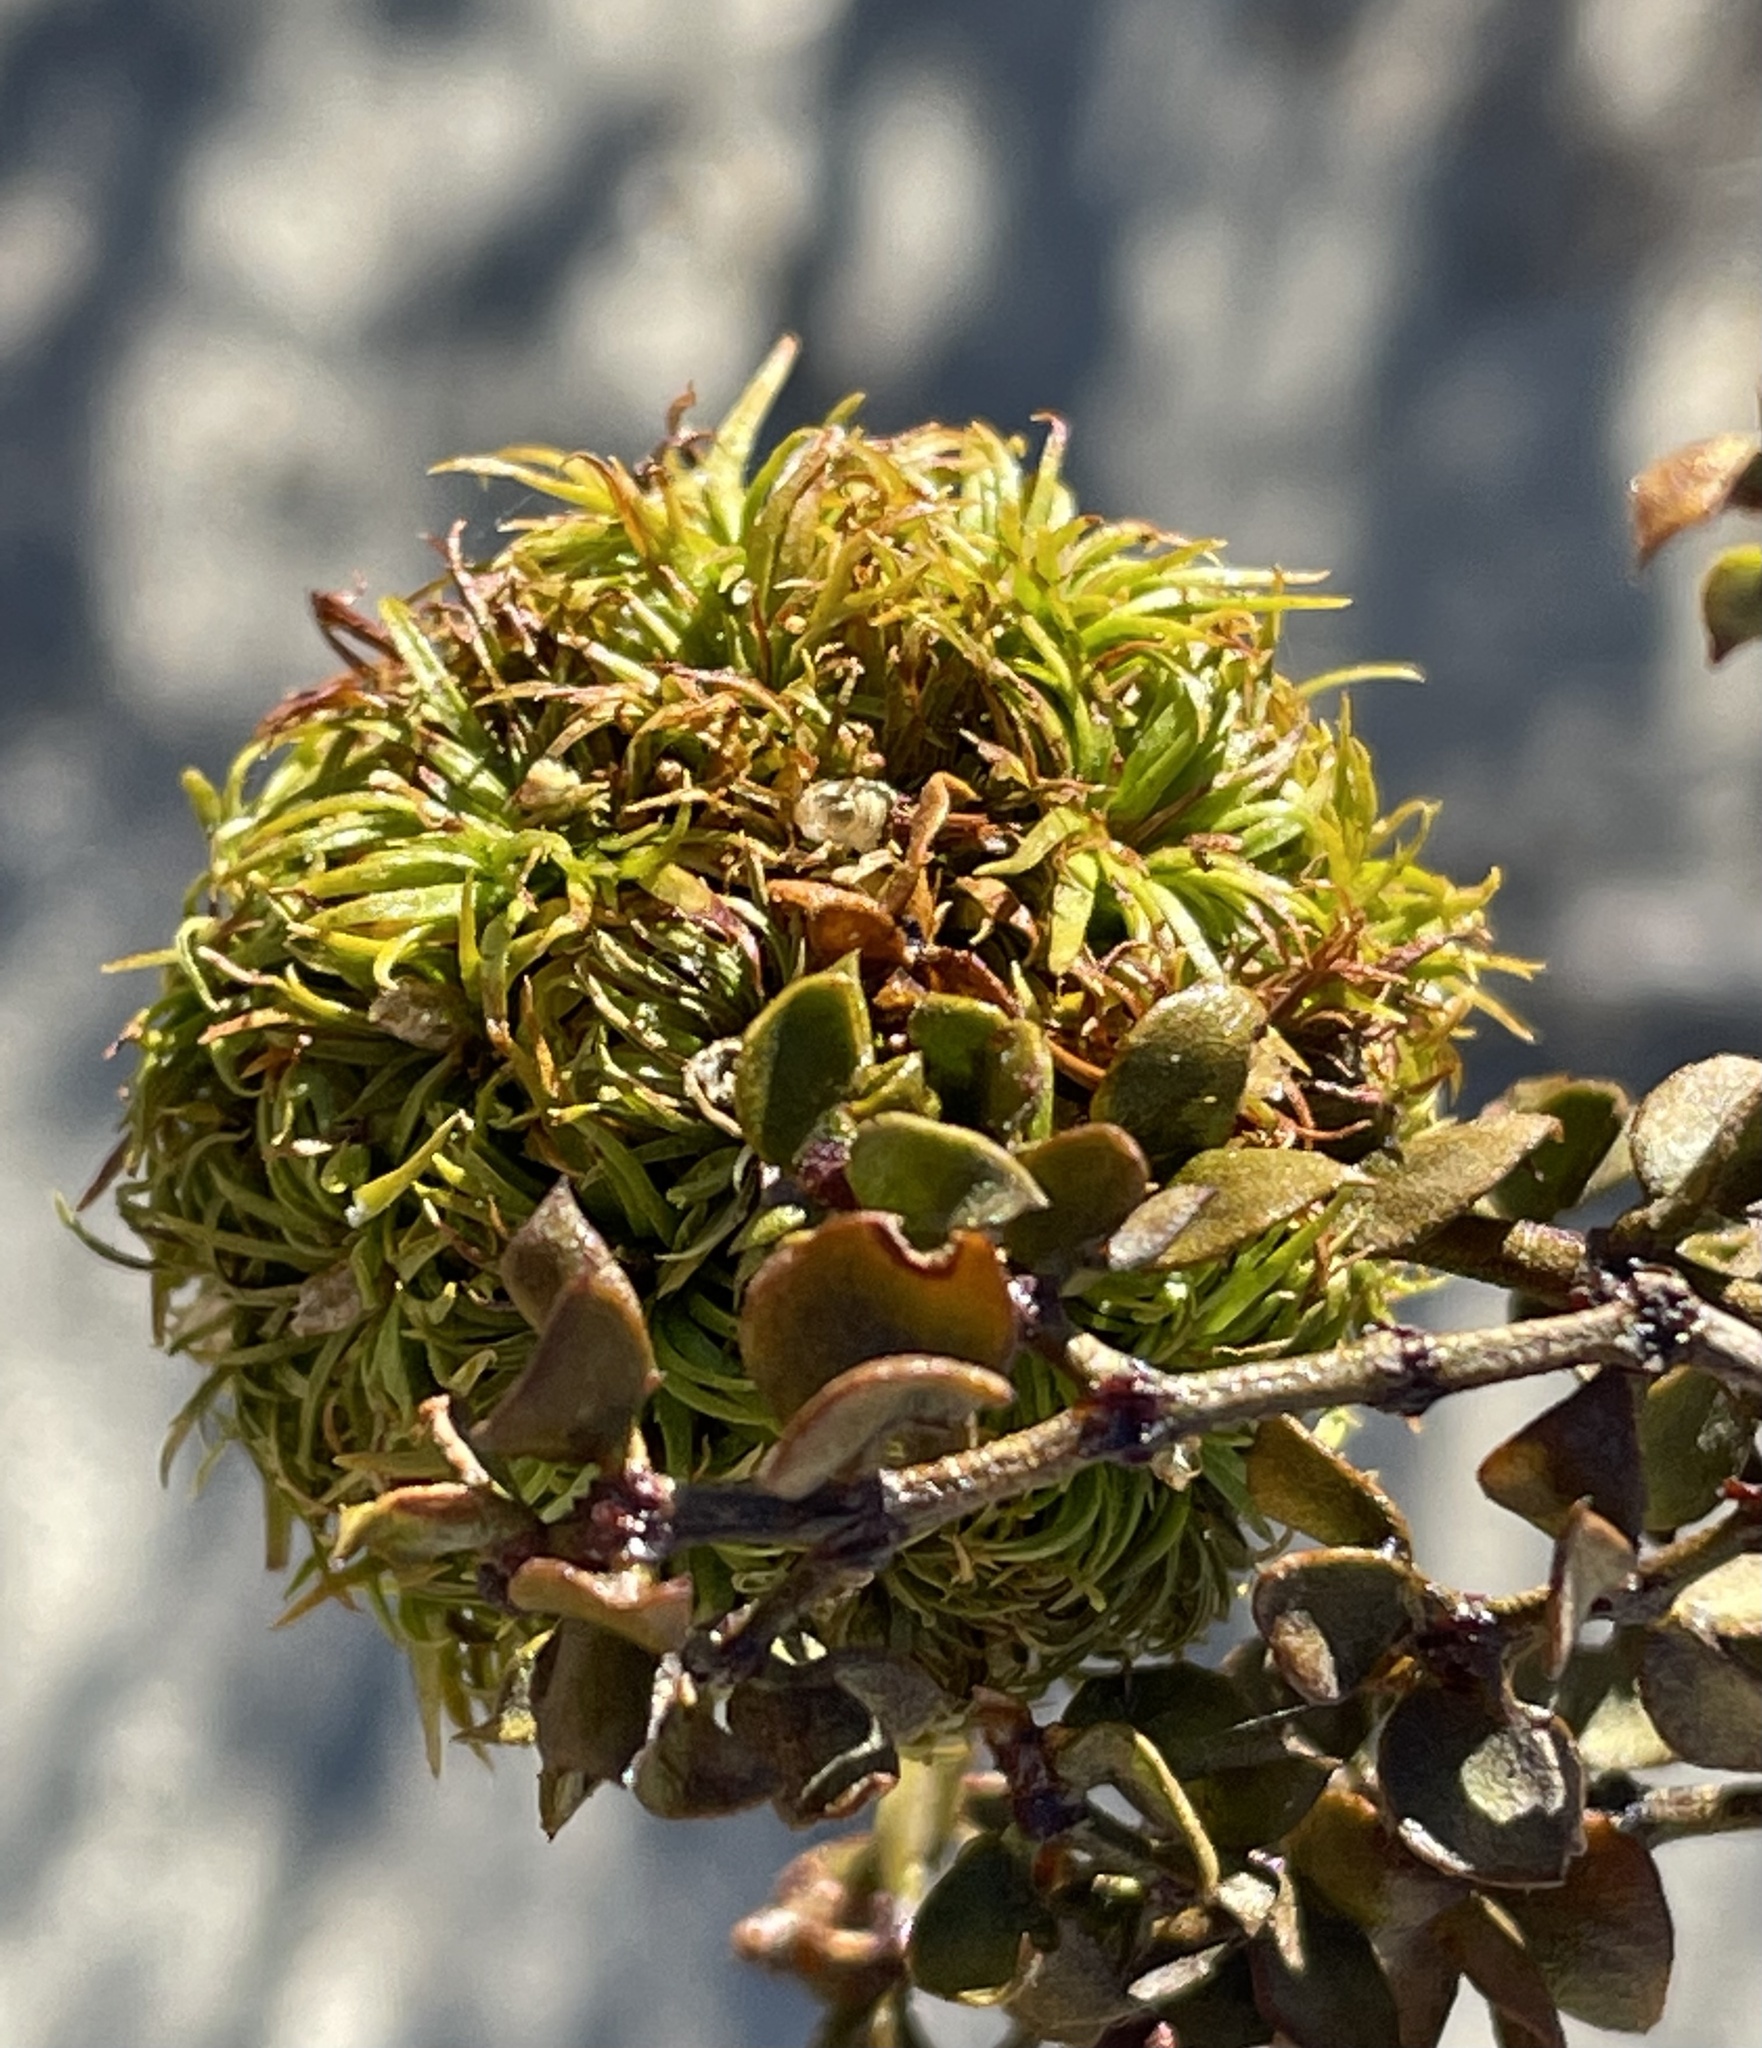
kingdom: Animalia
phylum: Arthropoda
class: Insecta
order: Diptera
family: Cecidomyiidae
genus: Asphondylia
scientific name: Asphondylia auripila
